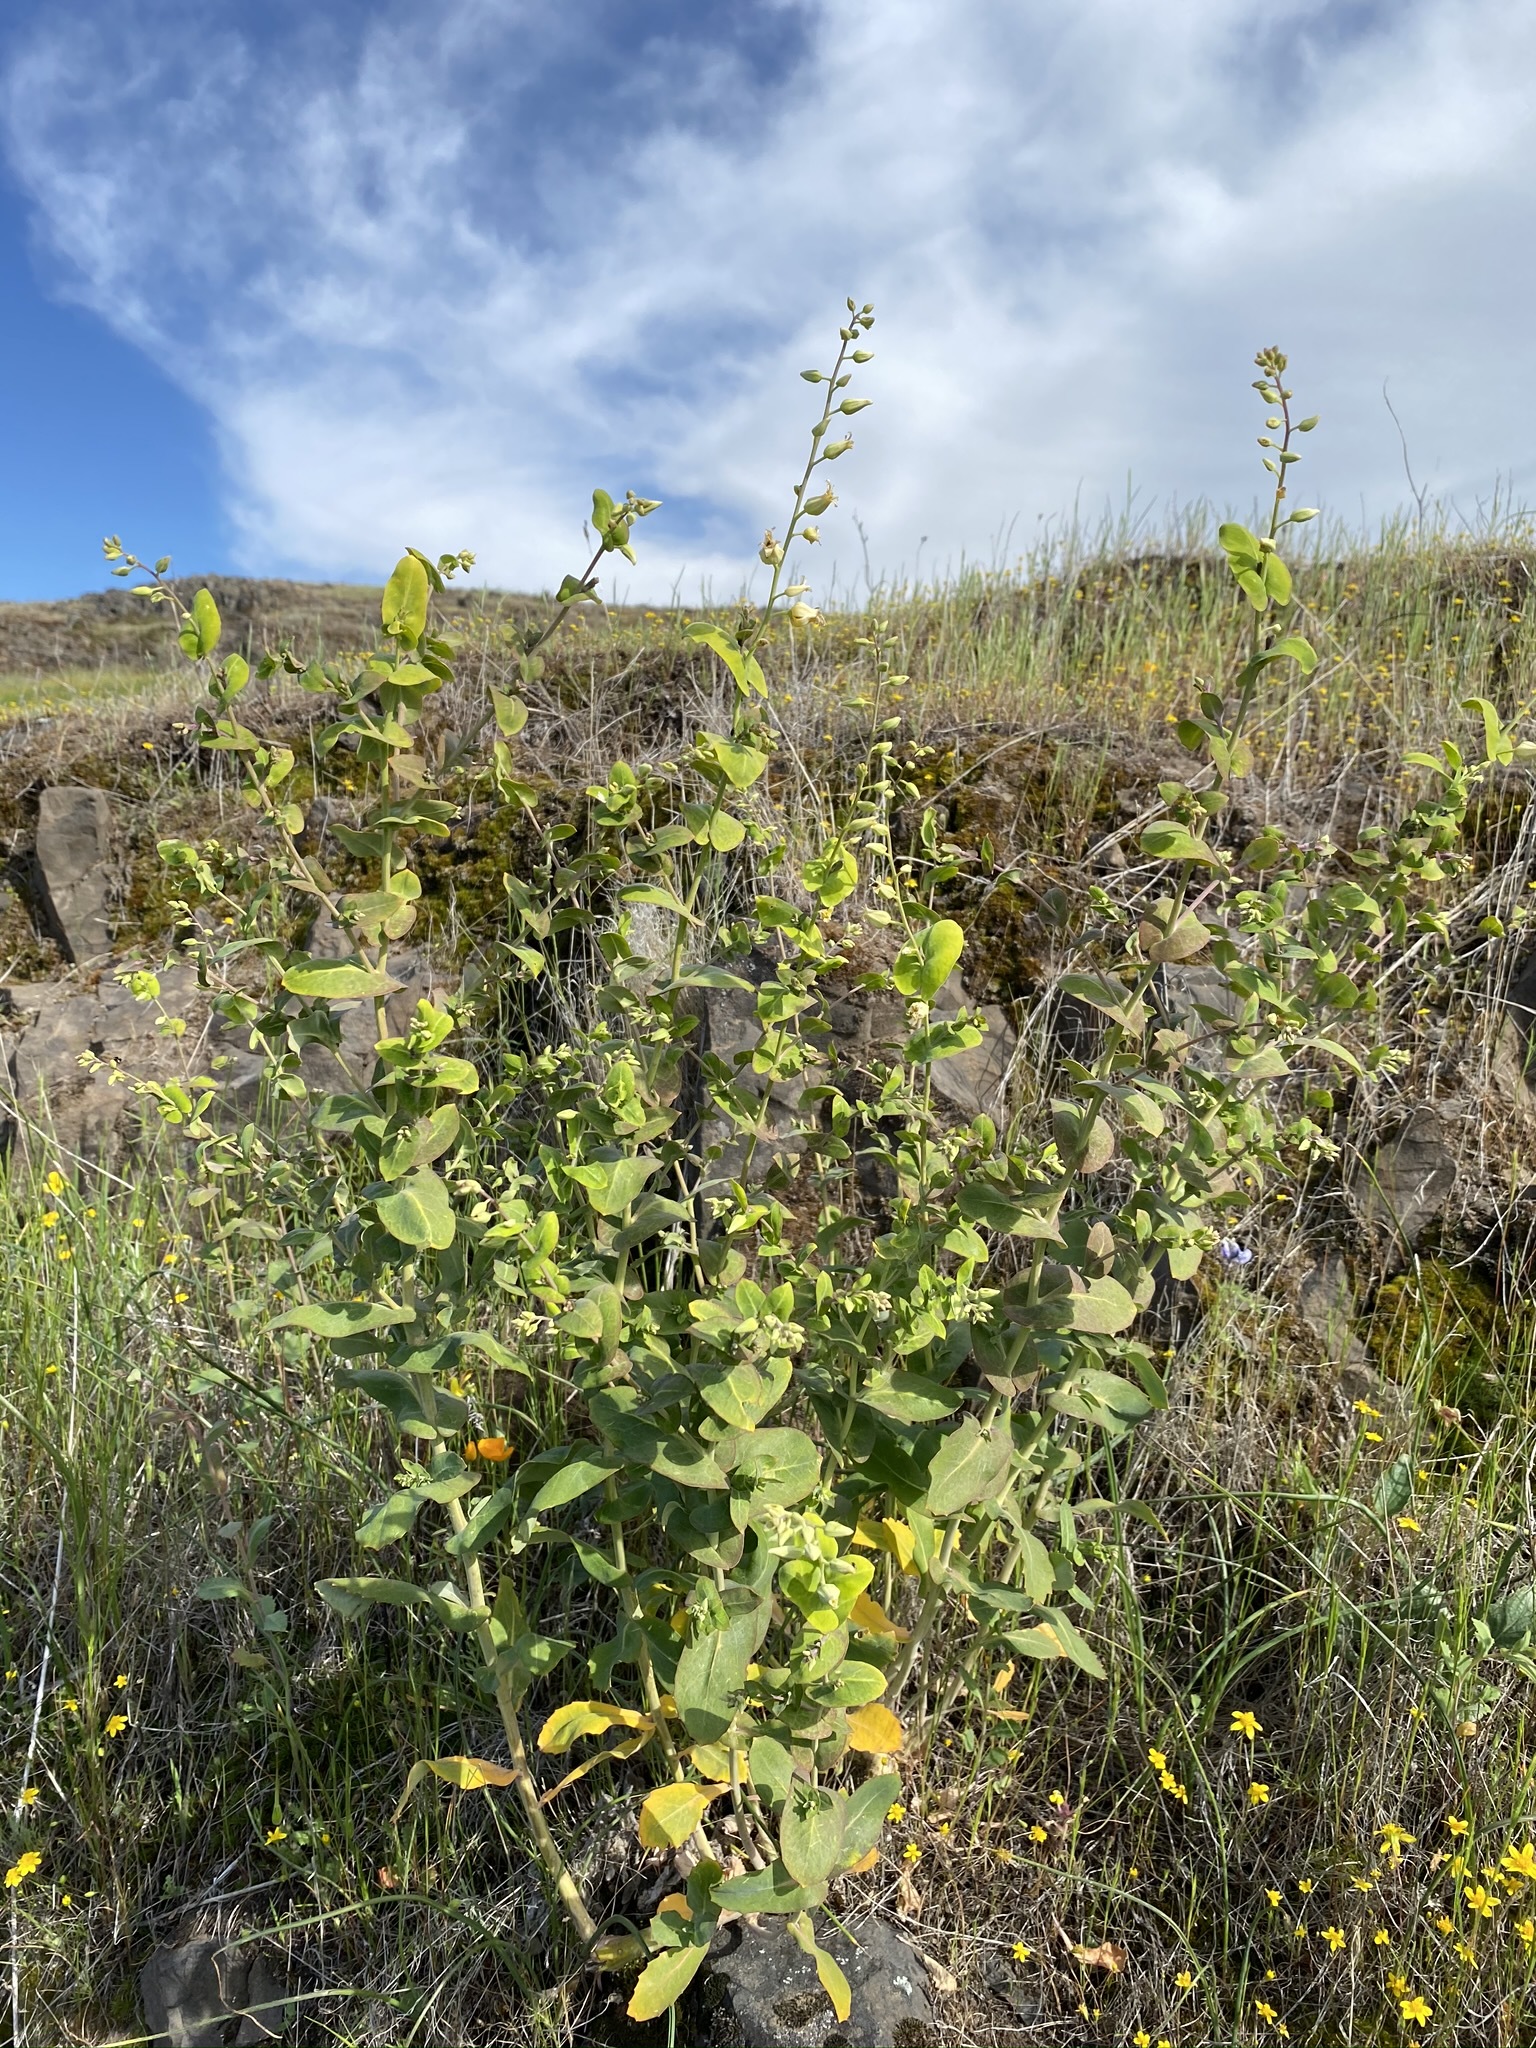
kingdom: Plantae
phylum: Tracheophyta
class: Magnoliopsida
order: Brassicales
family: Brassicaceae
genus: Streptanthus
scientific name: Streptanthus tortuosus
